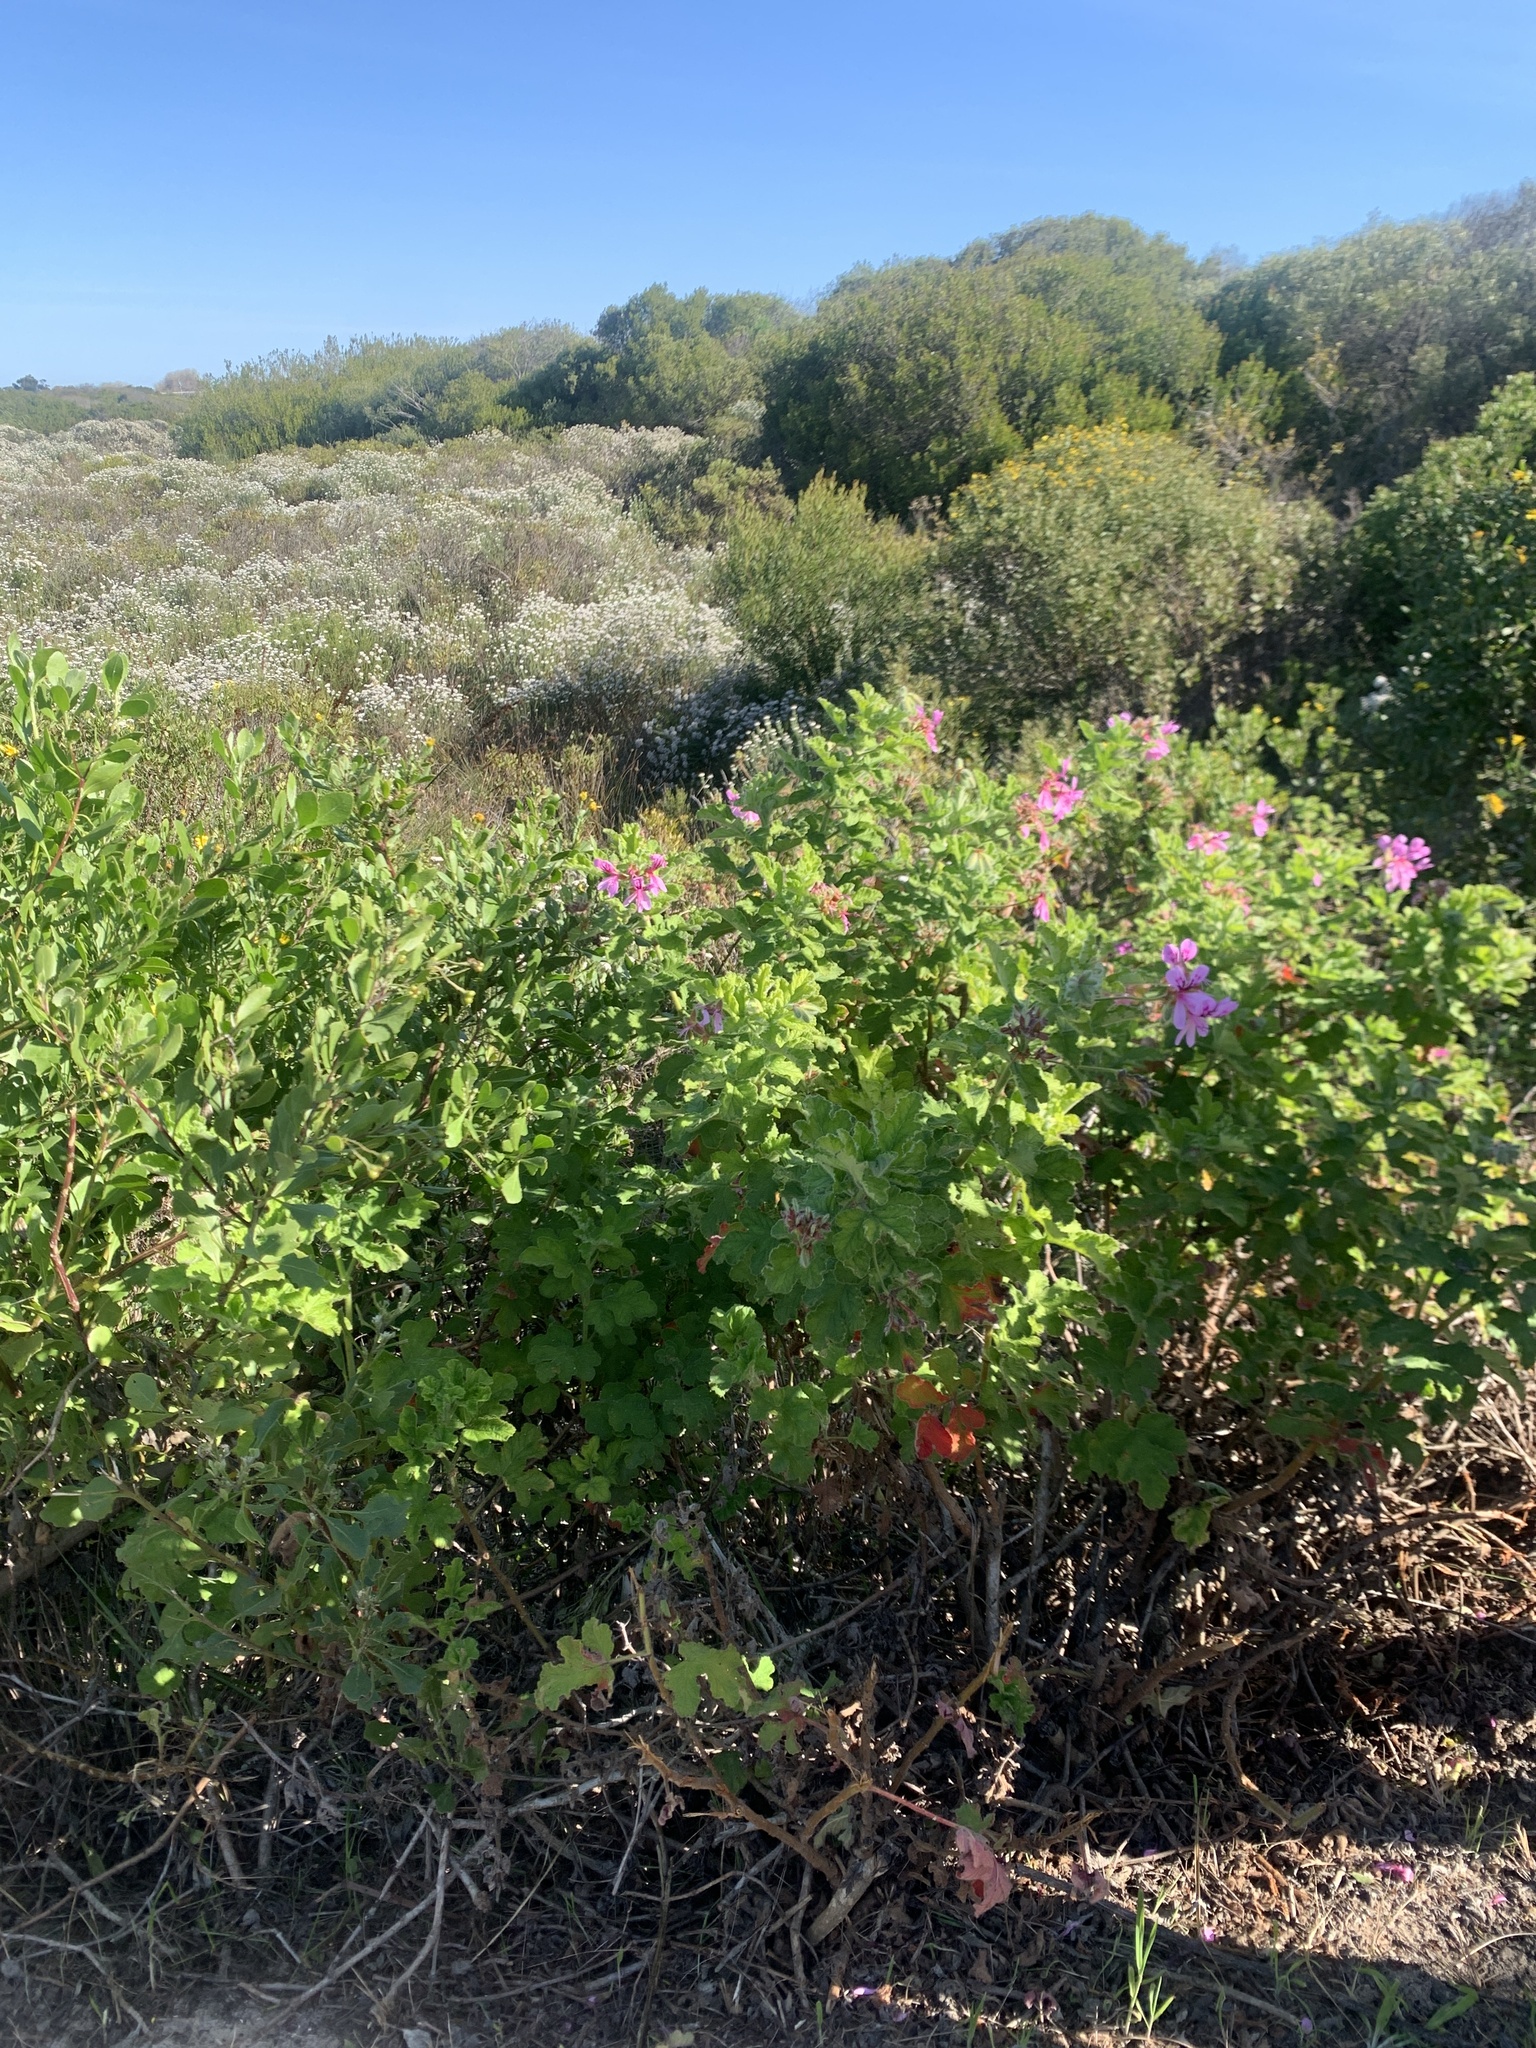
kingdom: Plantae
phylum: Tracheophyta
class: Magnoliopsida
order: Geraniales
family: Geraniaceae
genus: Pelargonium
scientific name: Pelargonium
